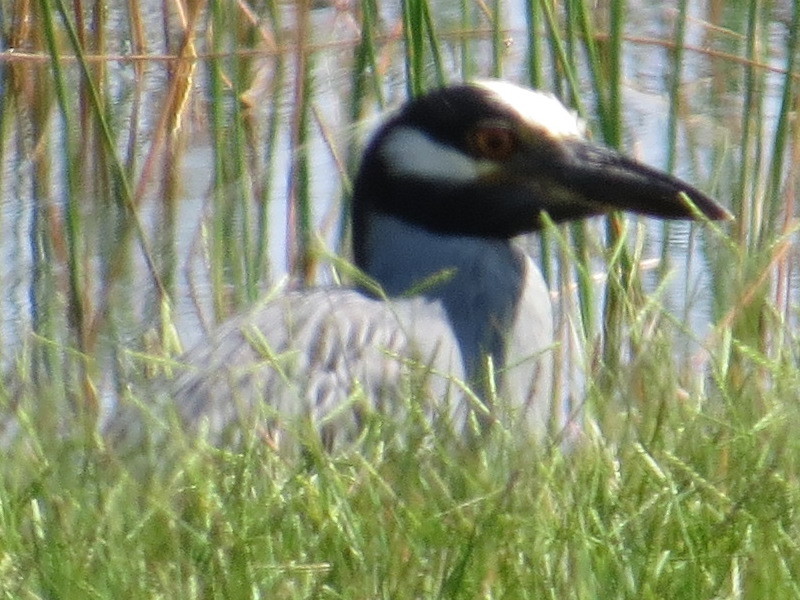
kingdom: Animalia
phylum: Chordata
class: Aves
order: Pelecaniformes
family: Ardeidae
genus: Nyctanassa
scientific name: Nyctanassa violacea
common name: Yellow-crowned night heron
